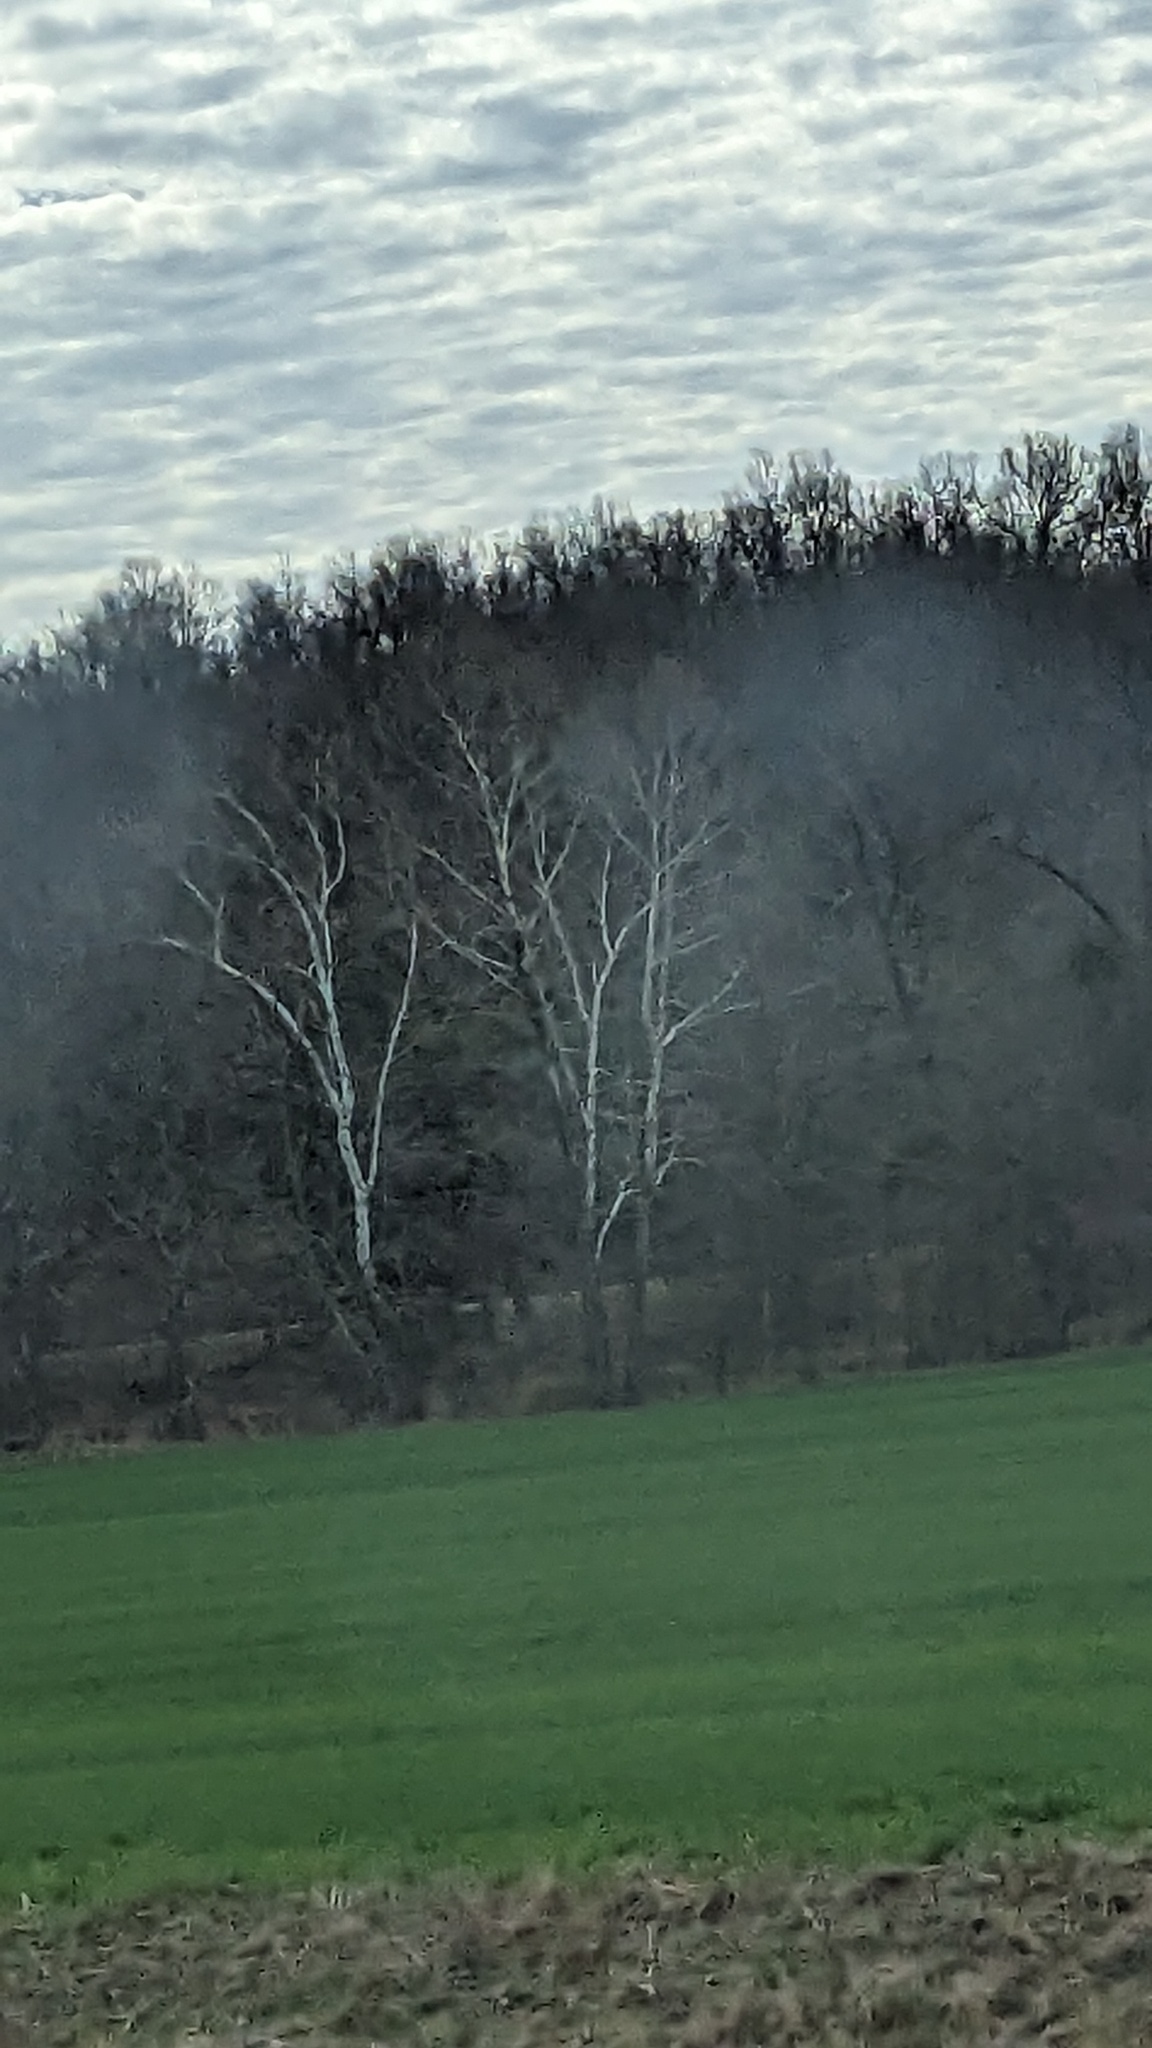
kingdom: Plantae
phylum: Tracheophyta
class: Magnoliopsida
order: Proteales
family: Platanaceae
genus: Platanus
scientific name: Platanus occidentalis
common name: American sycamore
